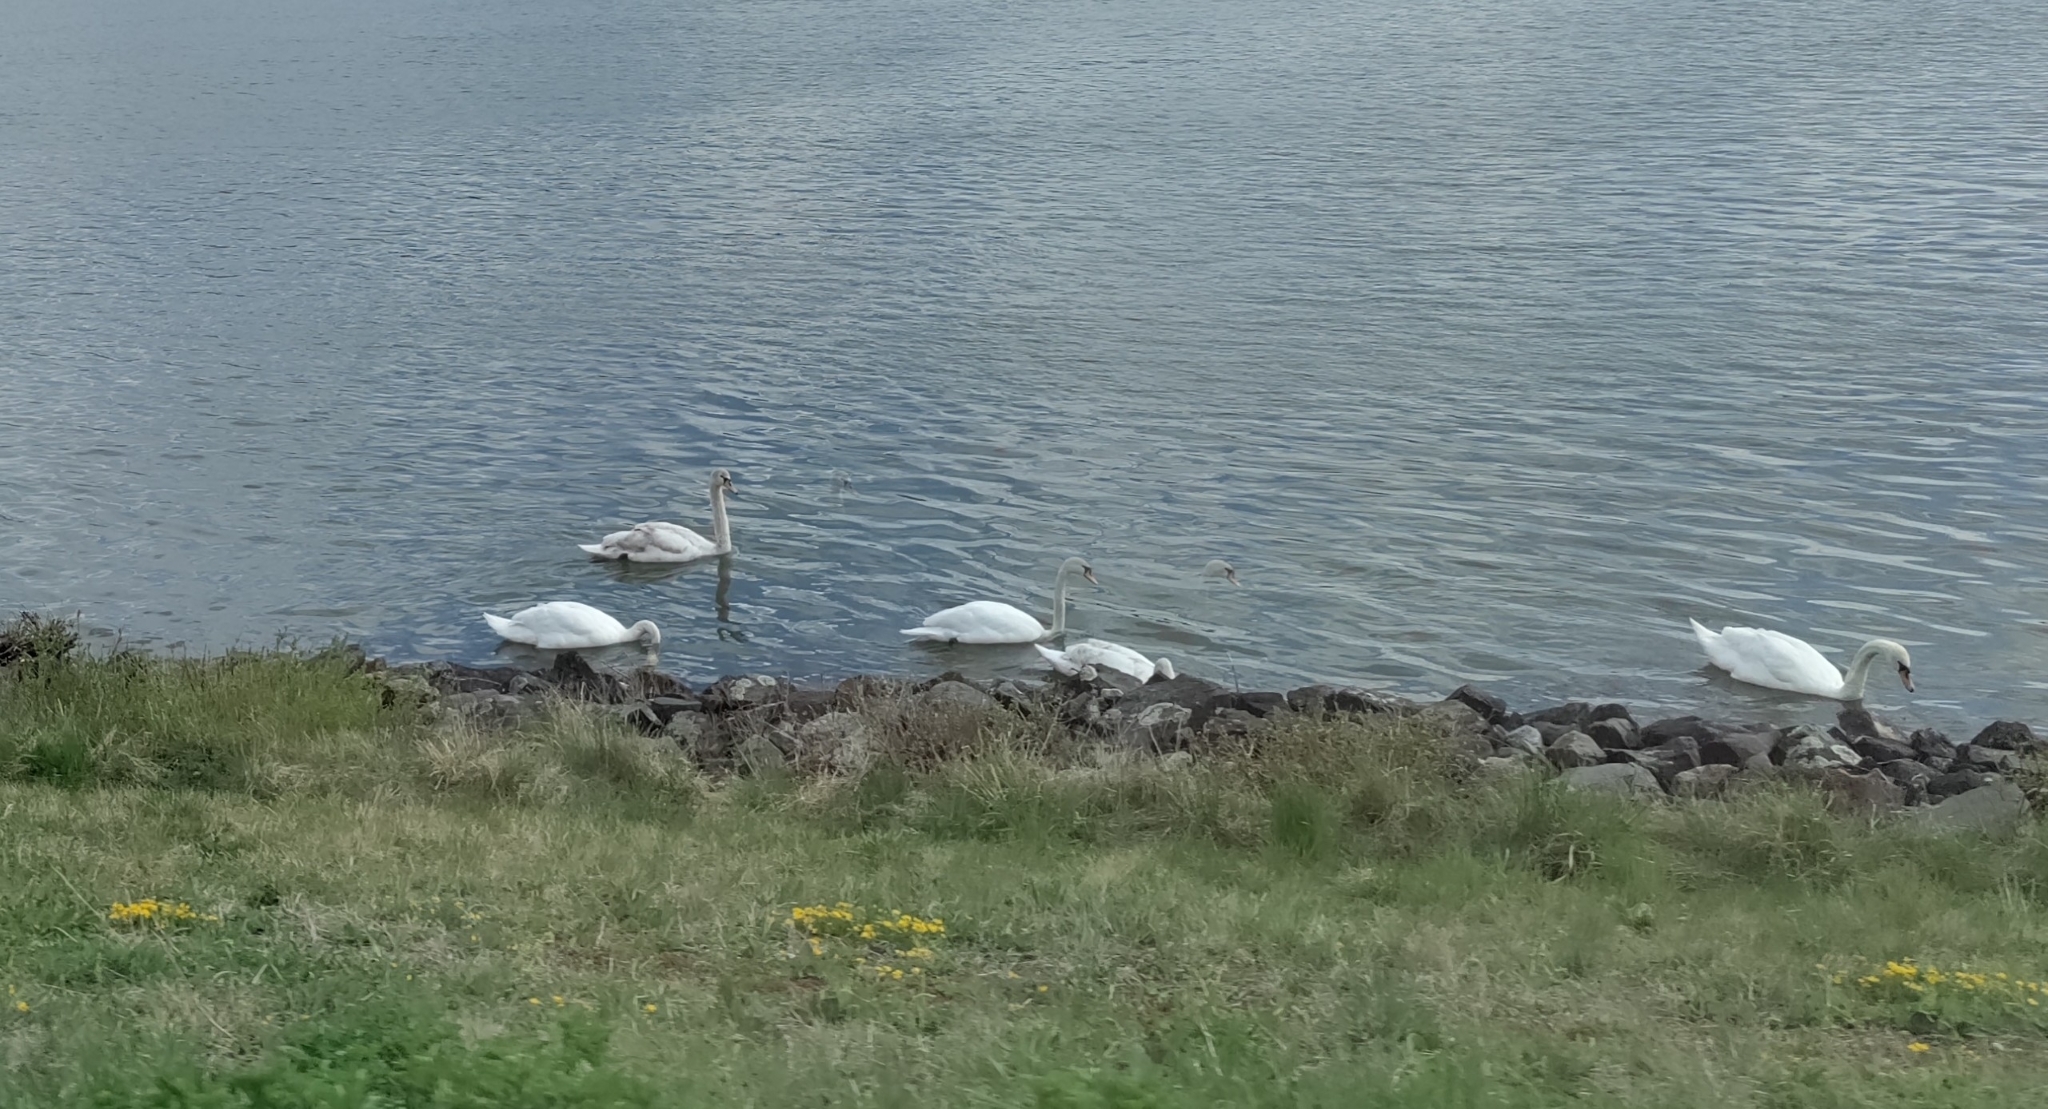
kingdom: Animalia
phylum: Chordata
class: Aves
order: Anseriformes
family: Anatidae
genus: Cygnus
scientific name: Cygnus olor
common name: Mute swan
